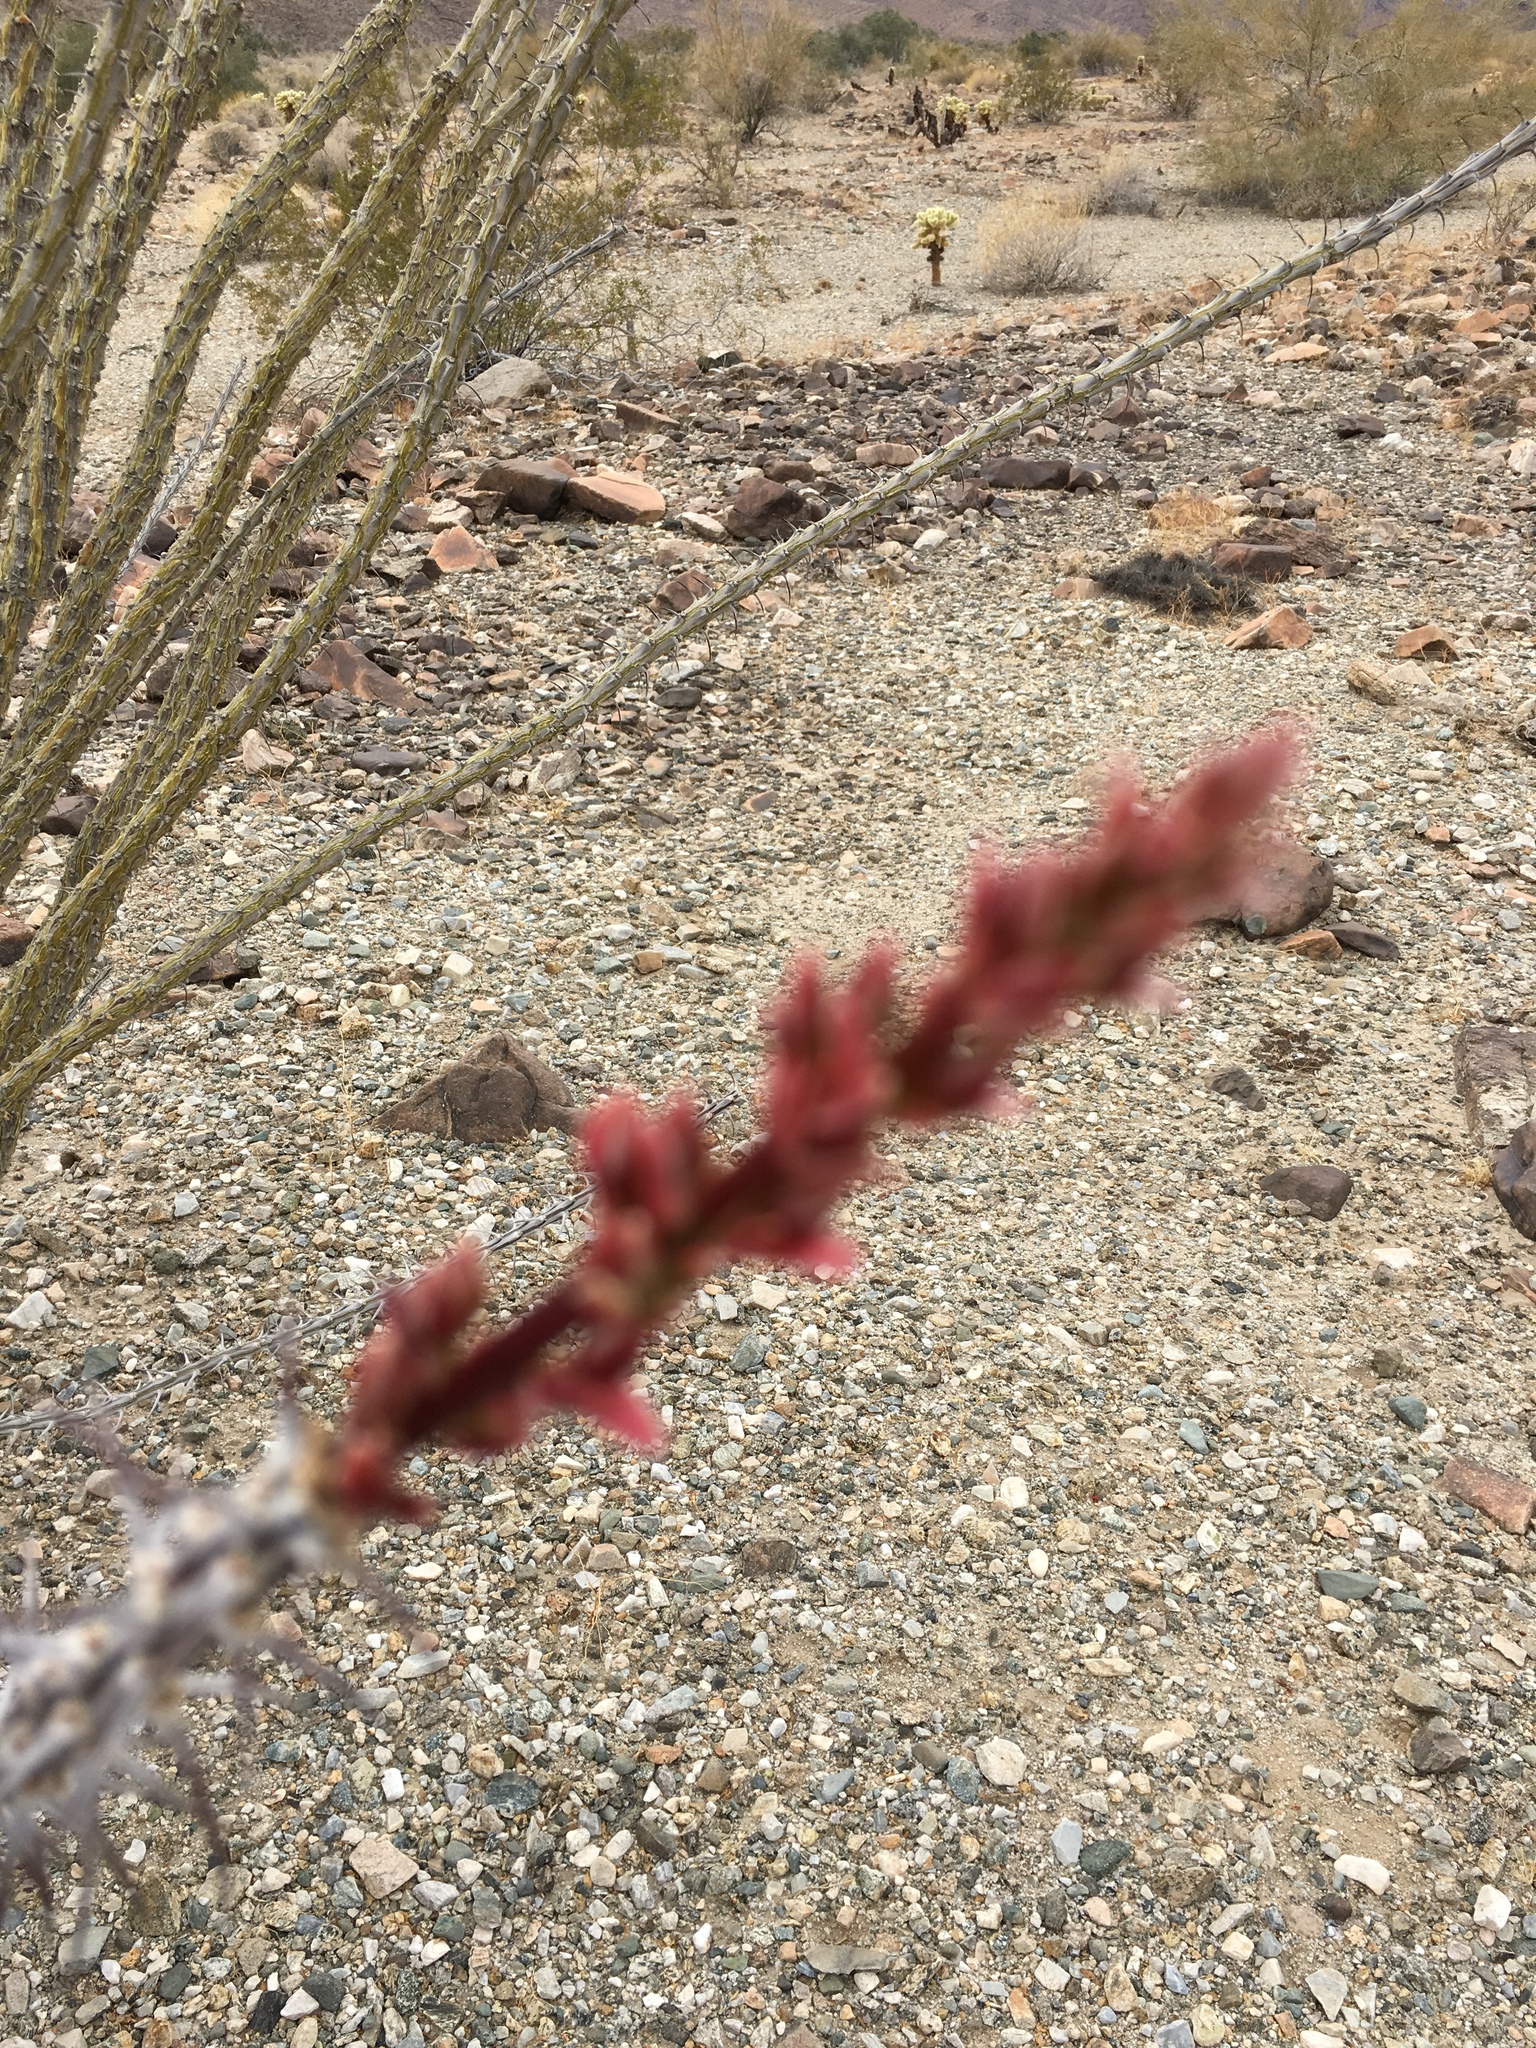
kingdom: Plantae
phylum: Tracheophyta
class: Magnoliopsida
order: Ericales
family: Fouquieriaceae
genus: Fouquieria
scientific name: Fouquieria splendens
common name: Vine-cactus
